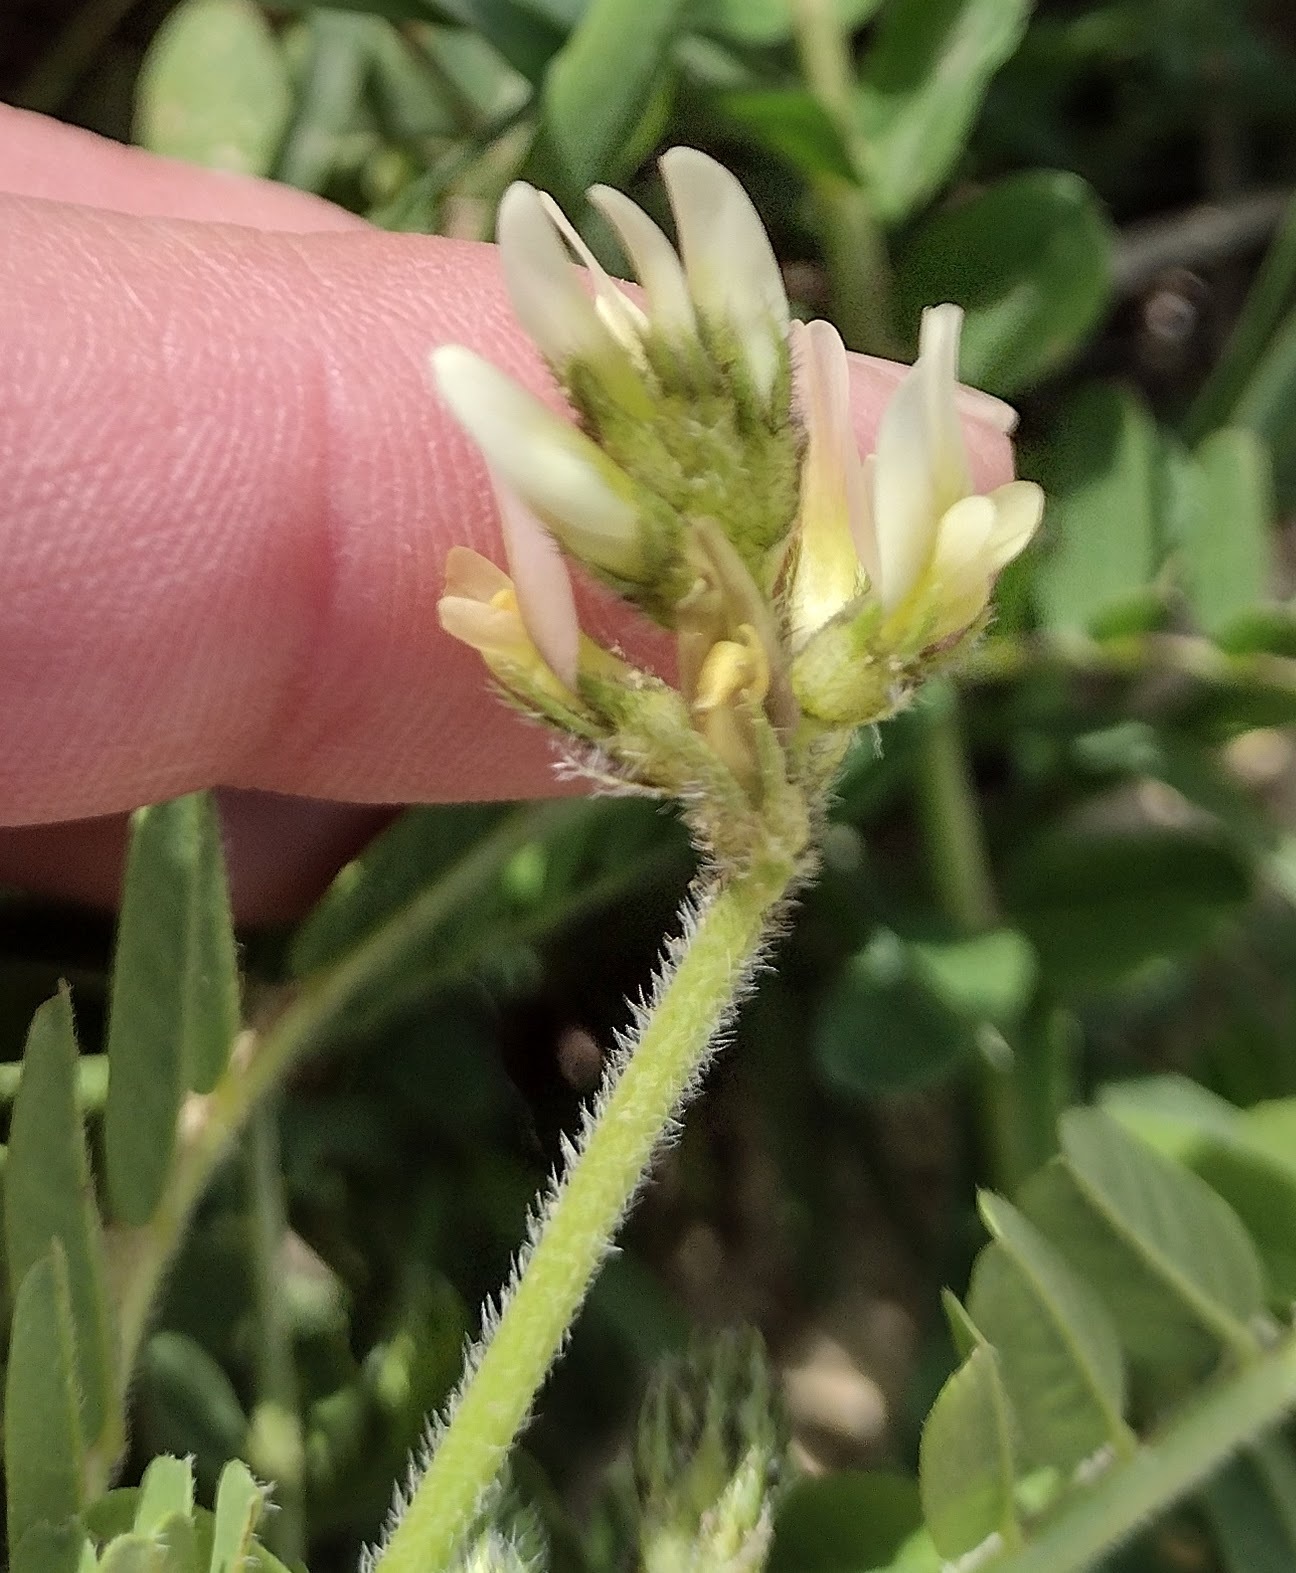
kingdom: Plantae
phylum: Tracheophyta
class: Magnoliopsida
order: Fabales
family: Fabaceae
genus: Astragalus
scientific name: Astragalus boeticus
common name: Milk-vetch
